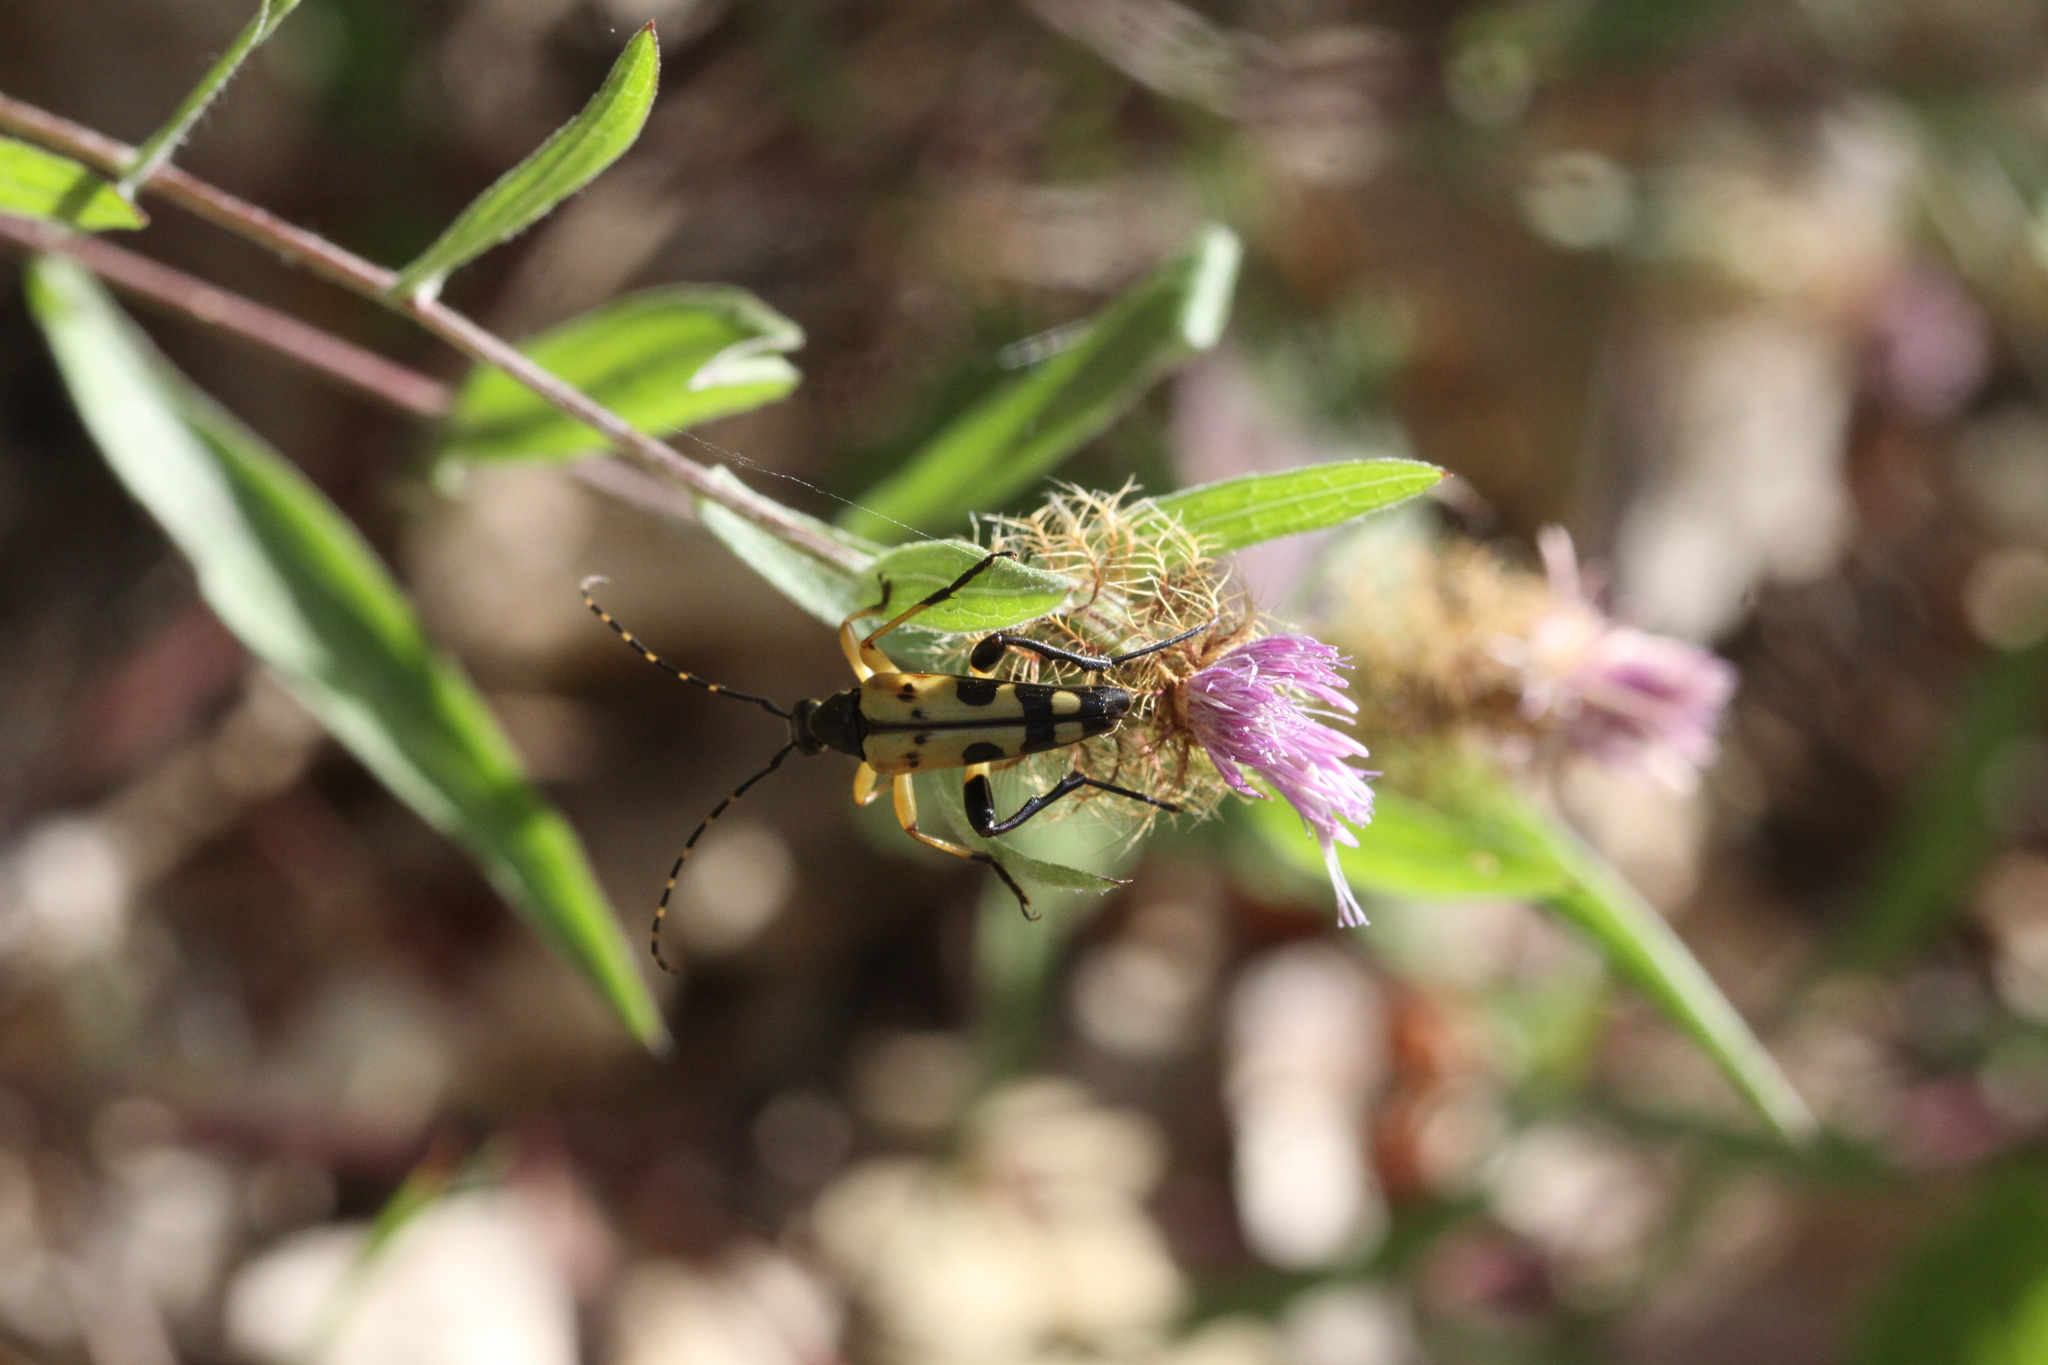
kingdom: Animalia
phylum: Arthropoda
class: Insecta
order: Coleoptera
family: Cerambycidae
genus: Rutpela
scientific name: Rutpela maculata
